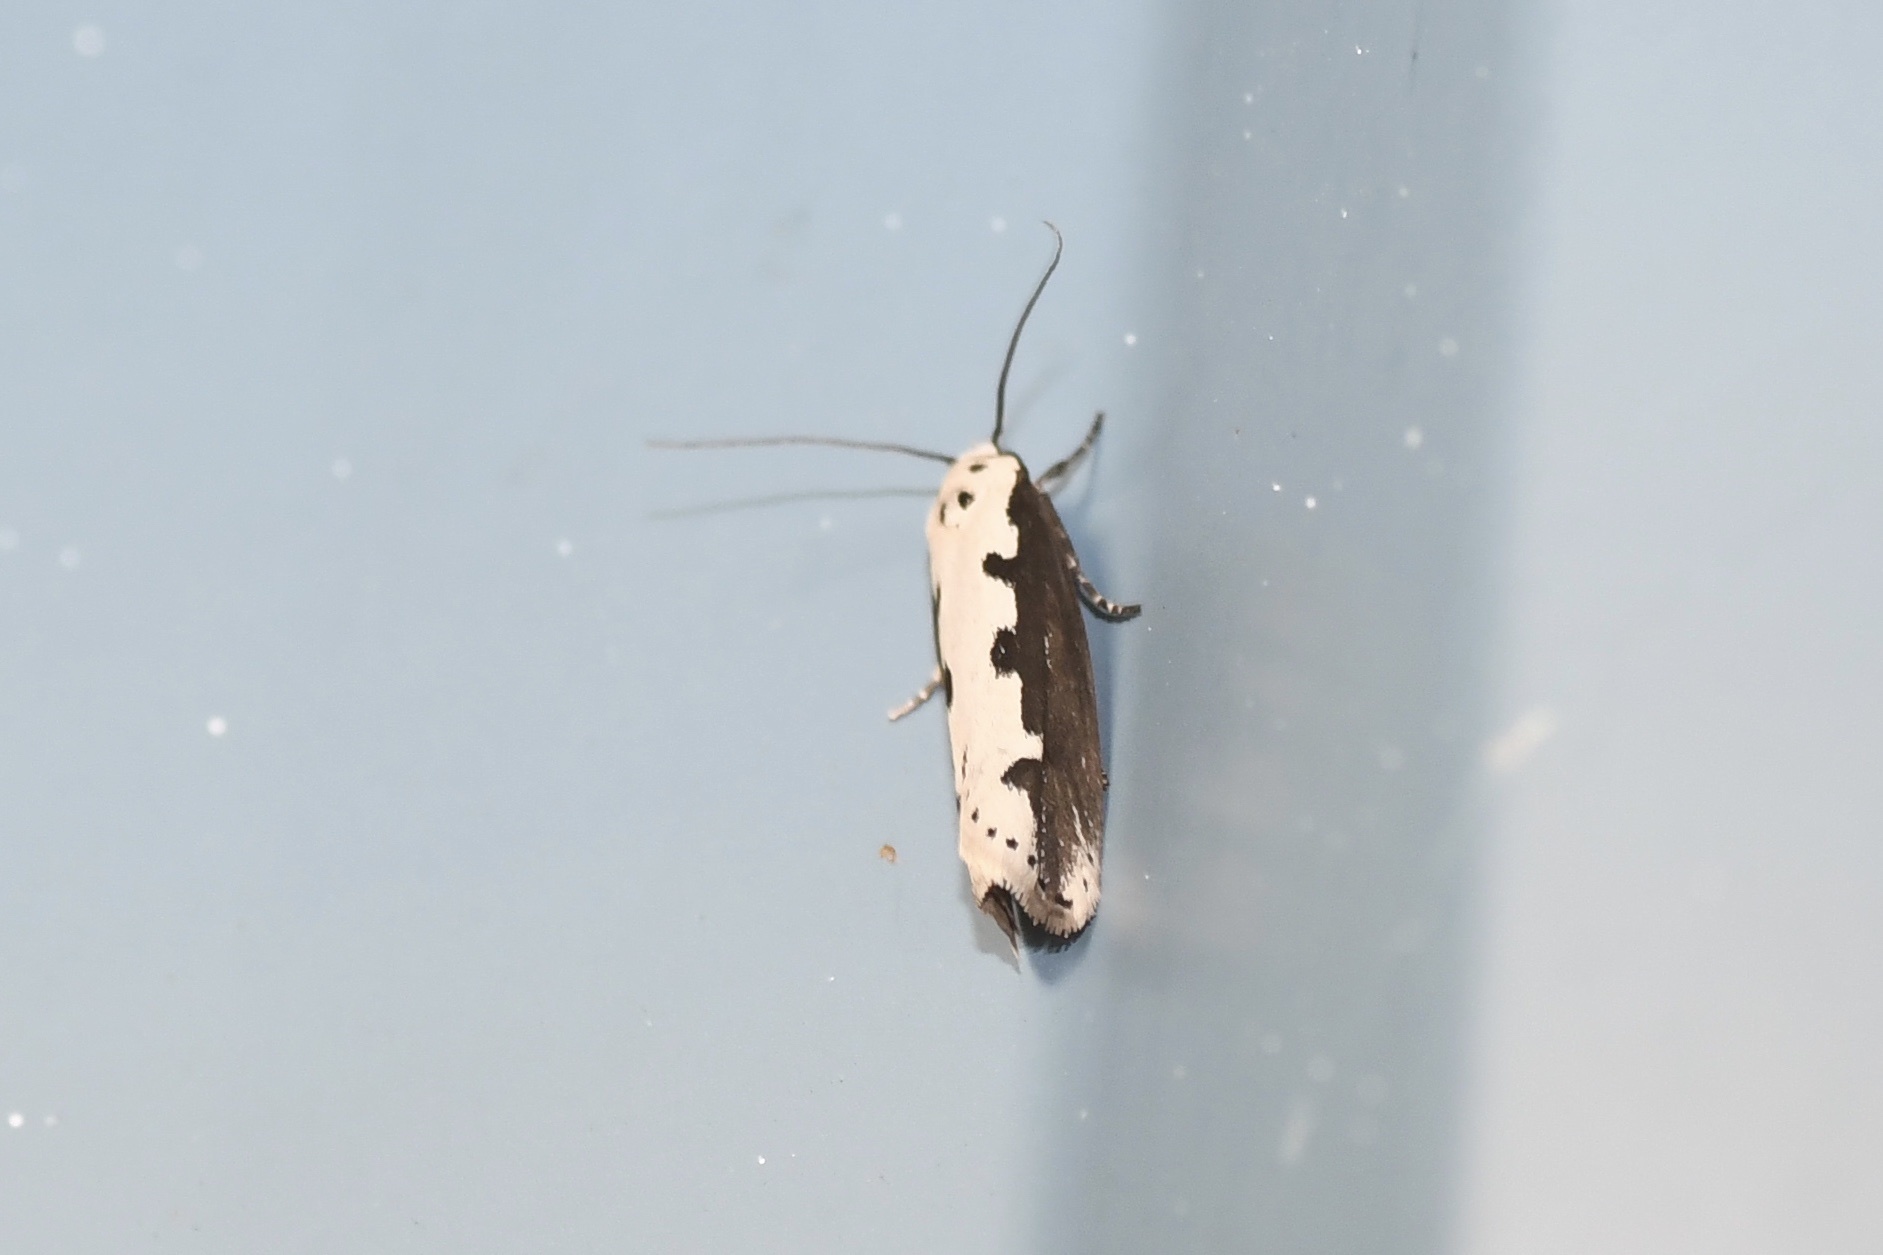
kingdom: Animalia
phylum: Arthropoda
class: Insecta
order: Lepidoptera
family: Ethmiidae
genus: Ethmia
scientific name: Ethmia bipunctella
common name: Bordered ermel
